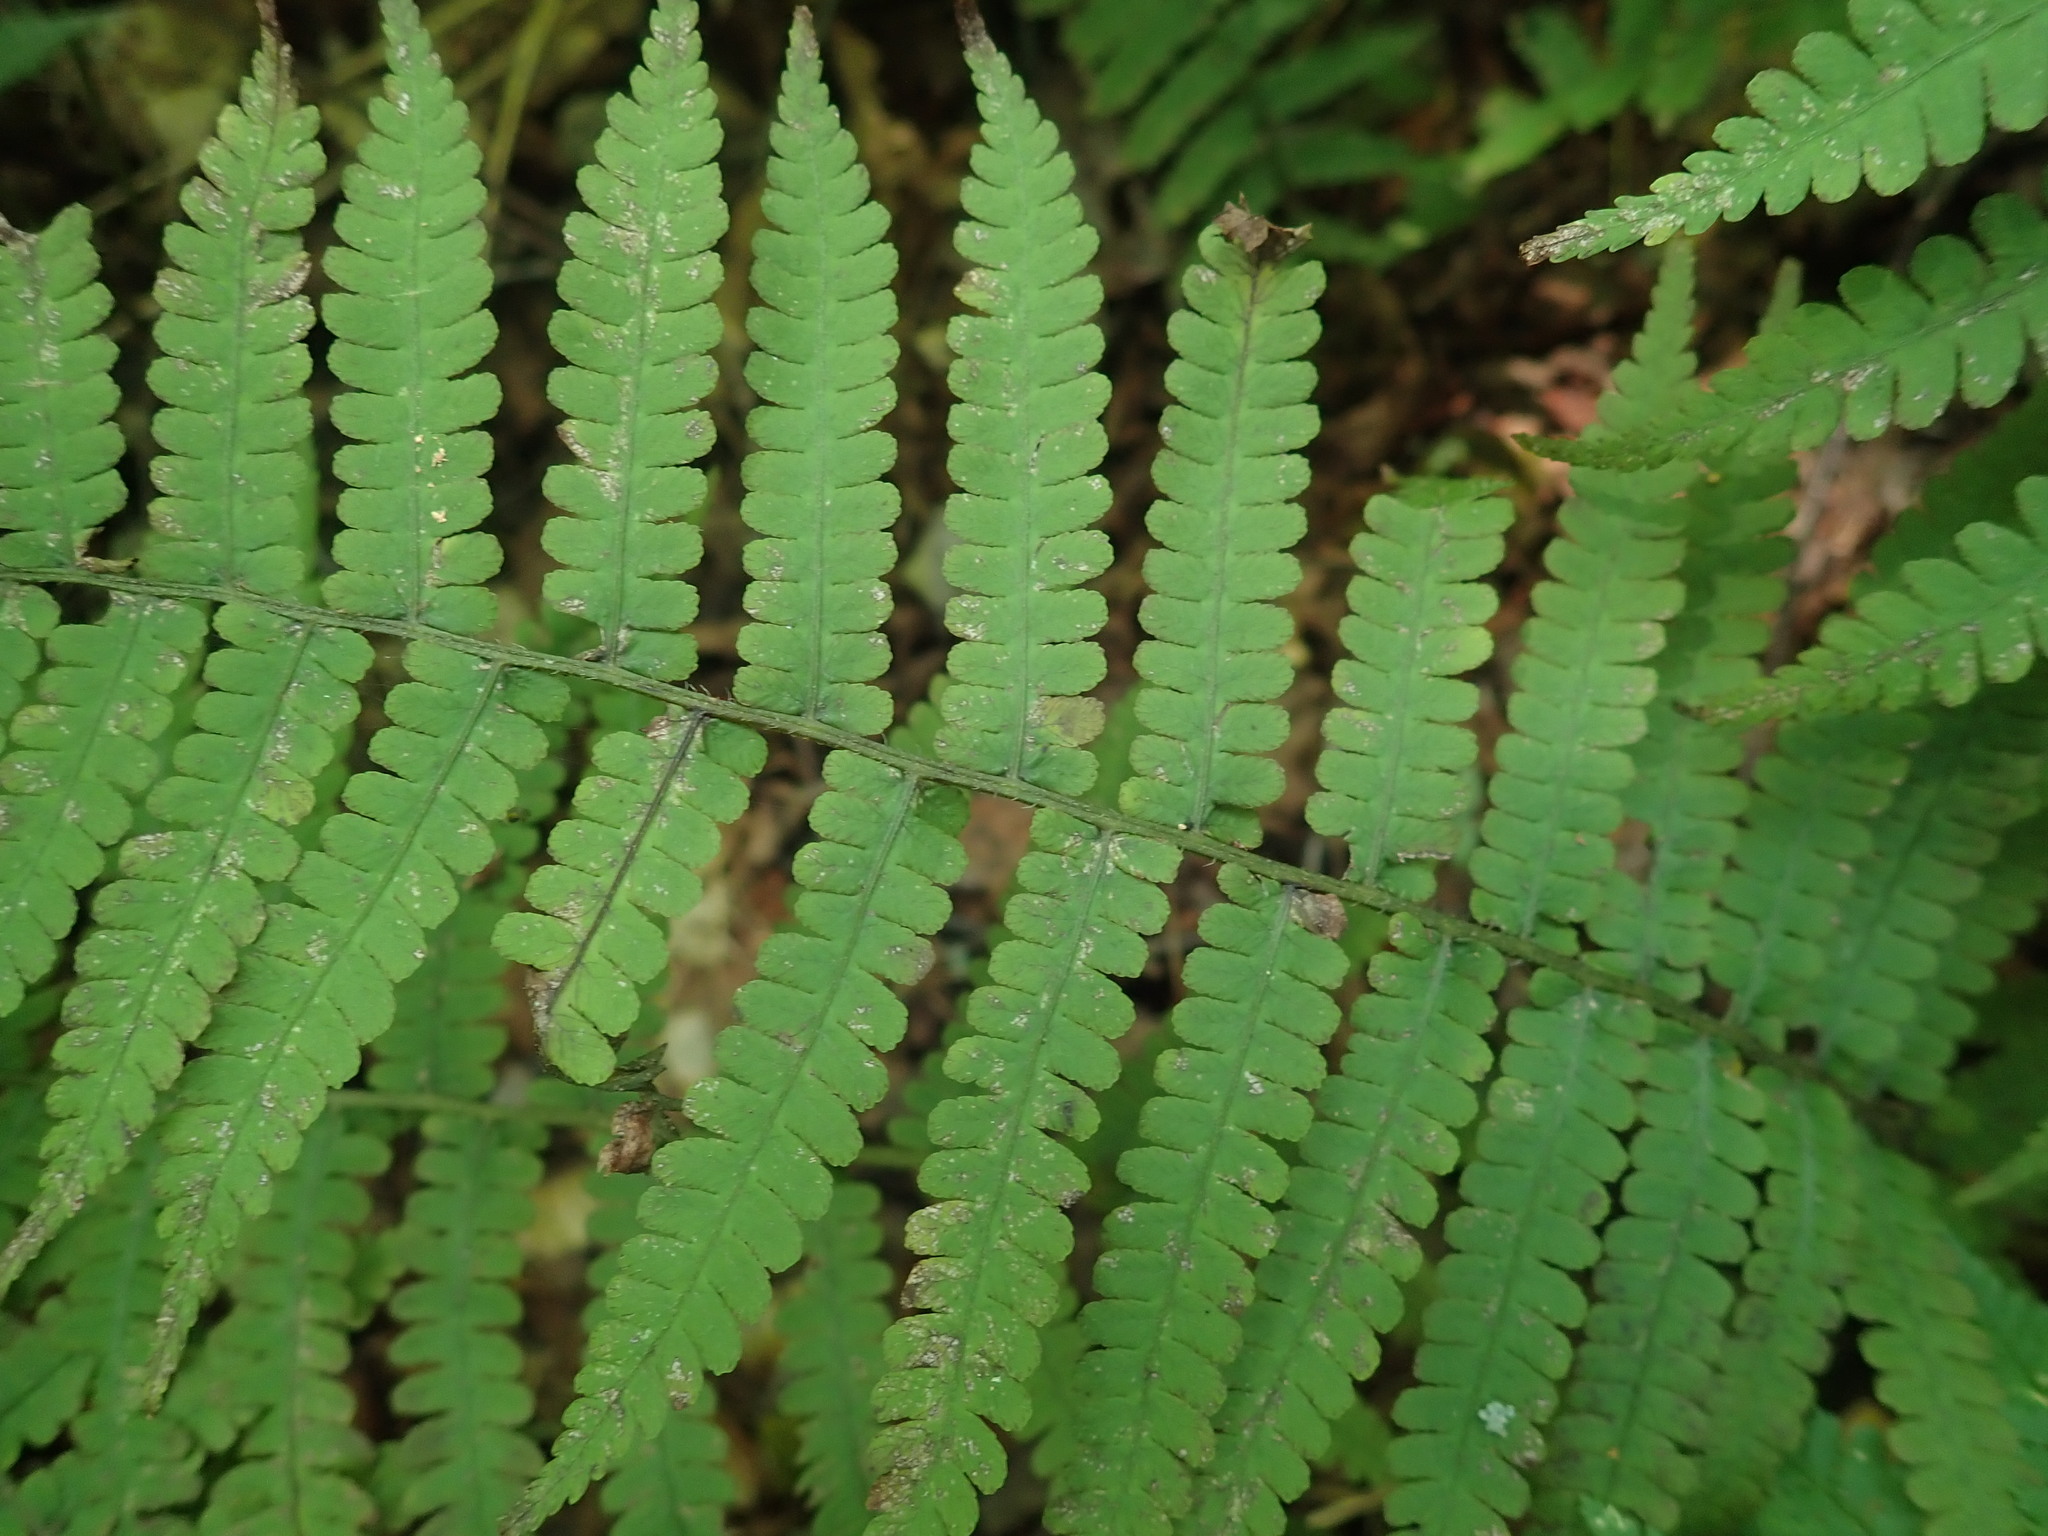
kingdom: Plantae
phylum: Tracheophyta
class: Polypodiopsida
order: Polypodiales
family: Athyriaceae
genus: Deparia
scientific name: Deparia acrostichoides
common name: Silver false spleenwort
